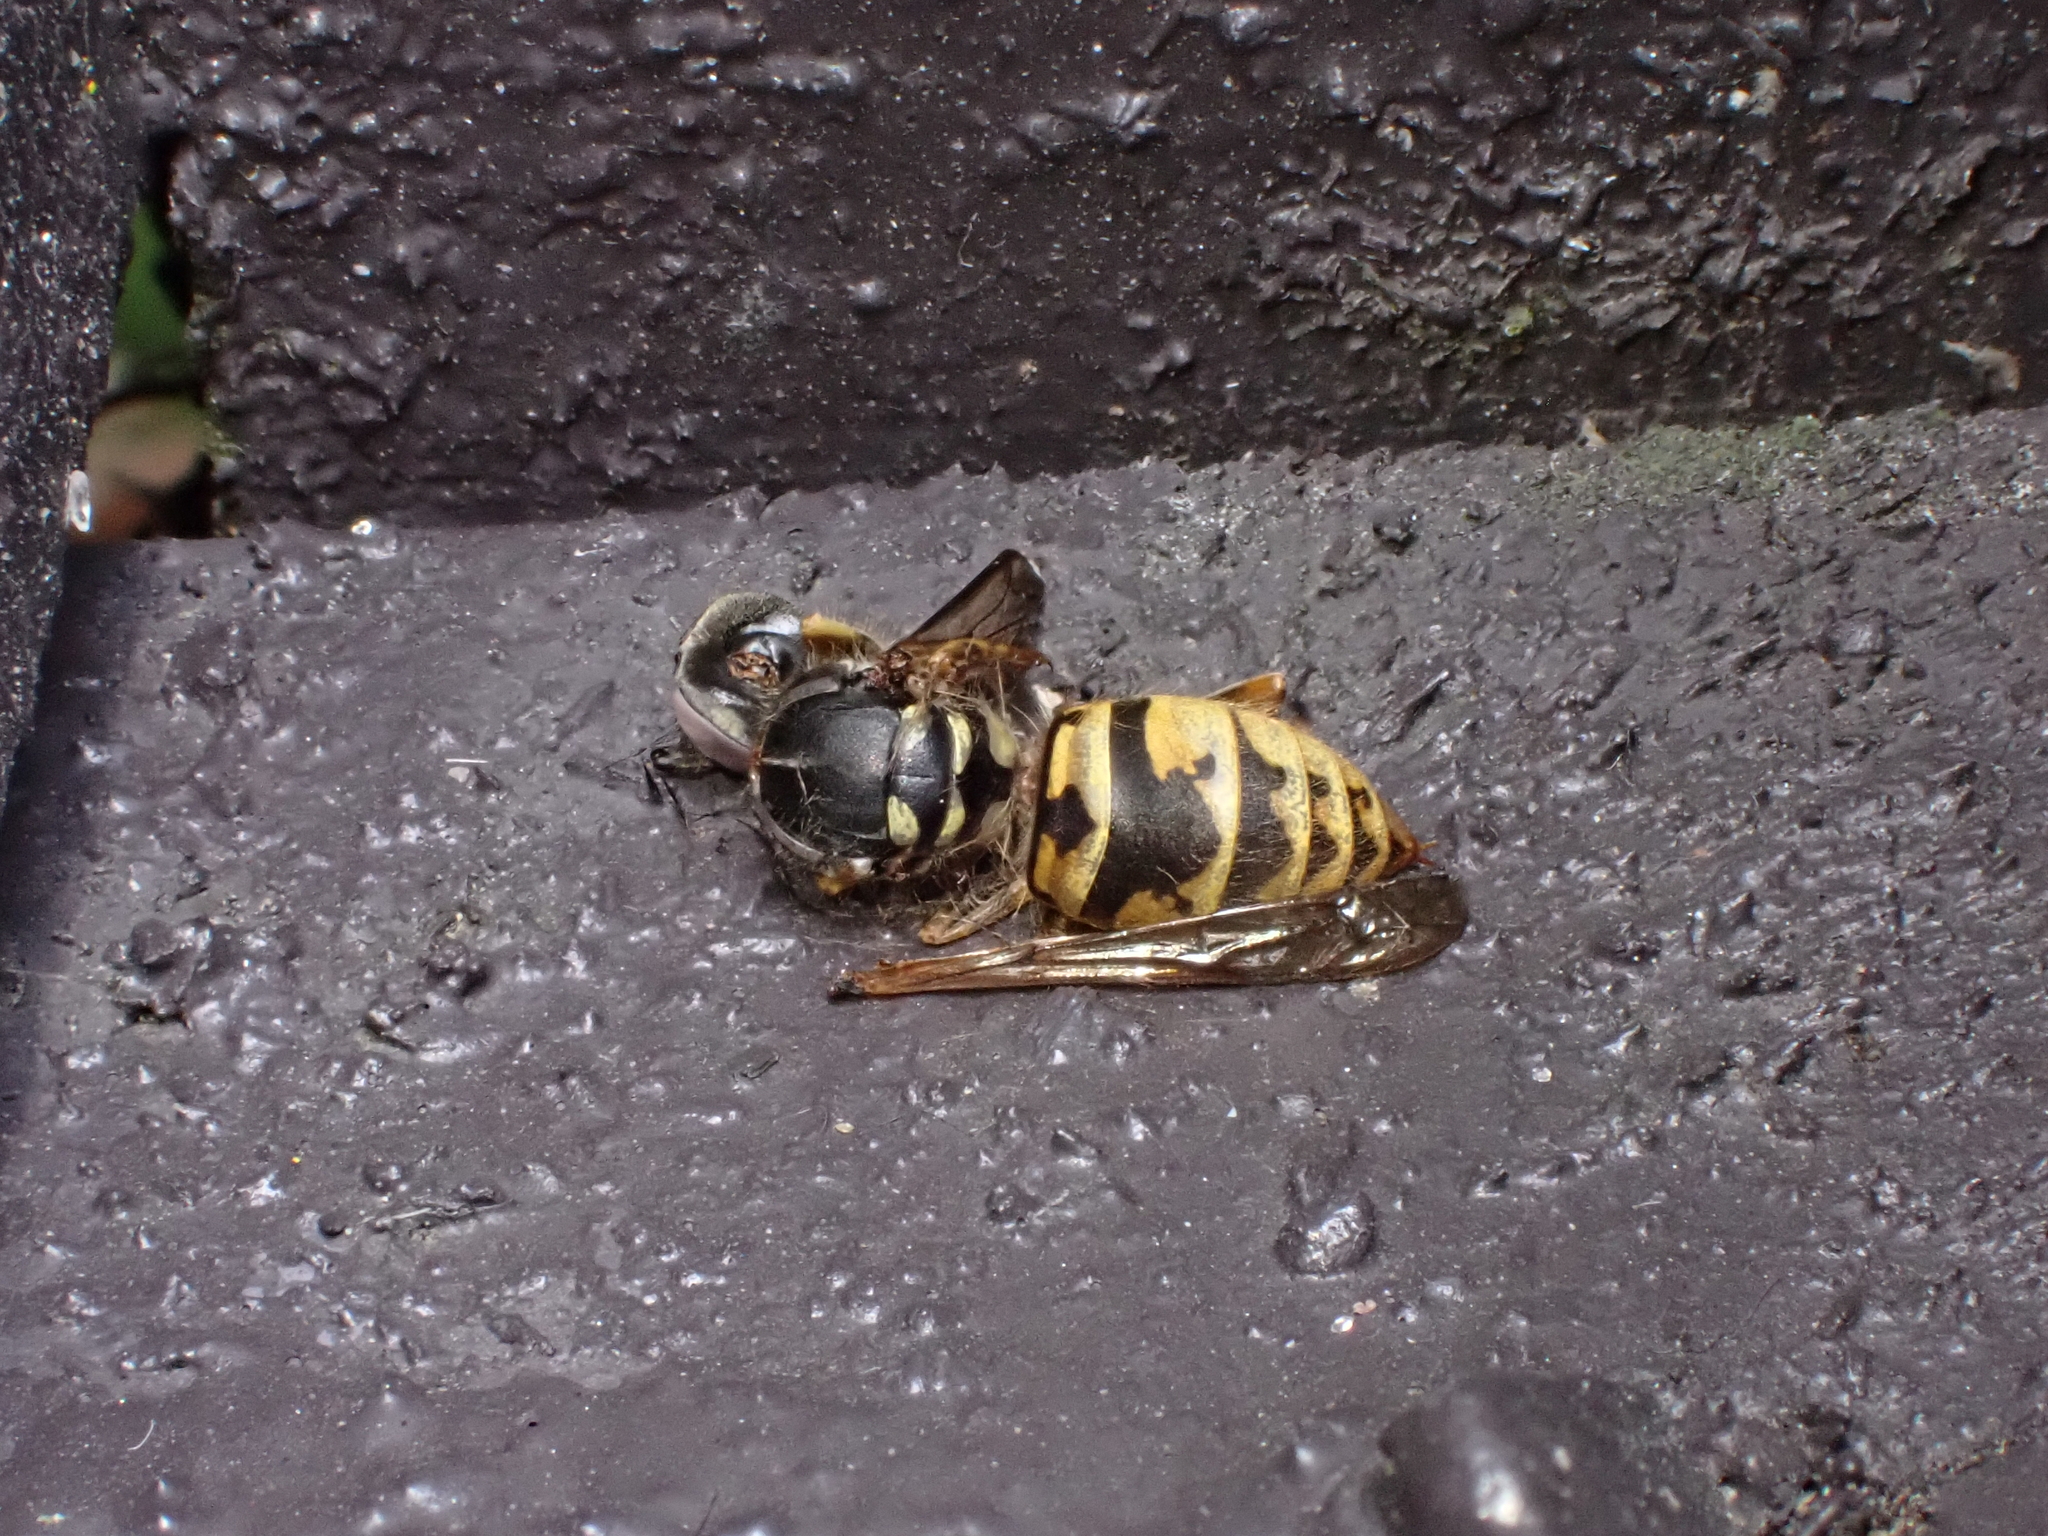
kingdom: Animalia
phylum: Arthropoda
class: Insecta
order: Hymenoptera
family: Vespidae
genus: Vespula
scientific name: Vespula vulgaris
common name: Common wasp
